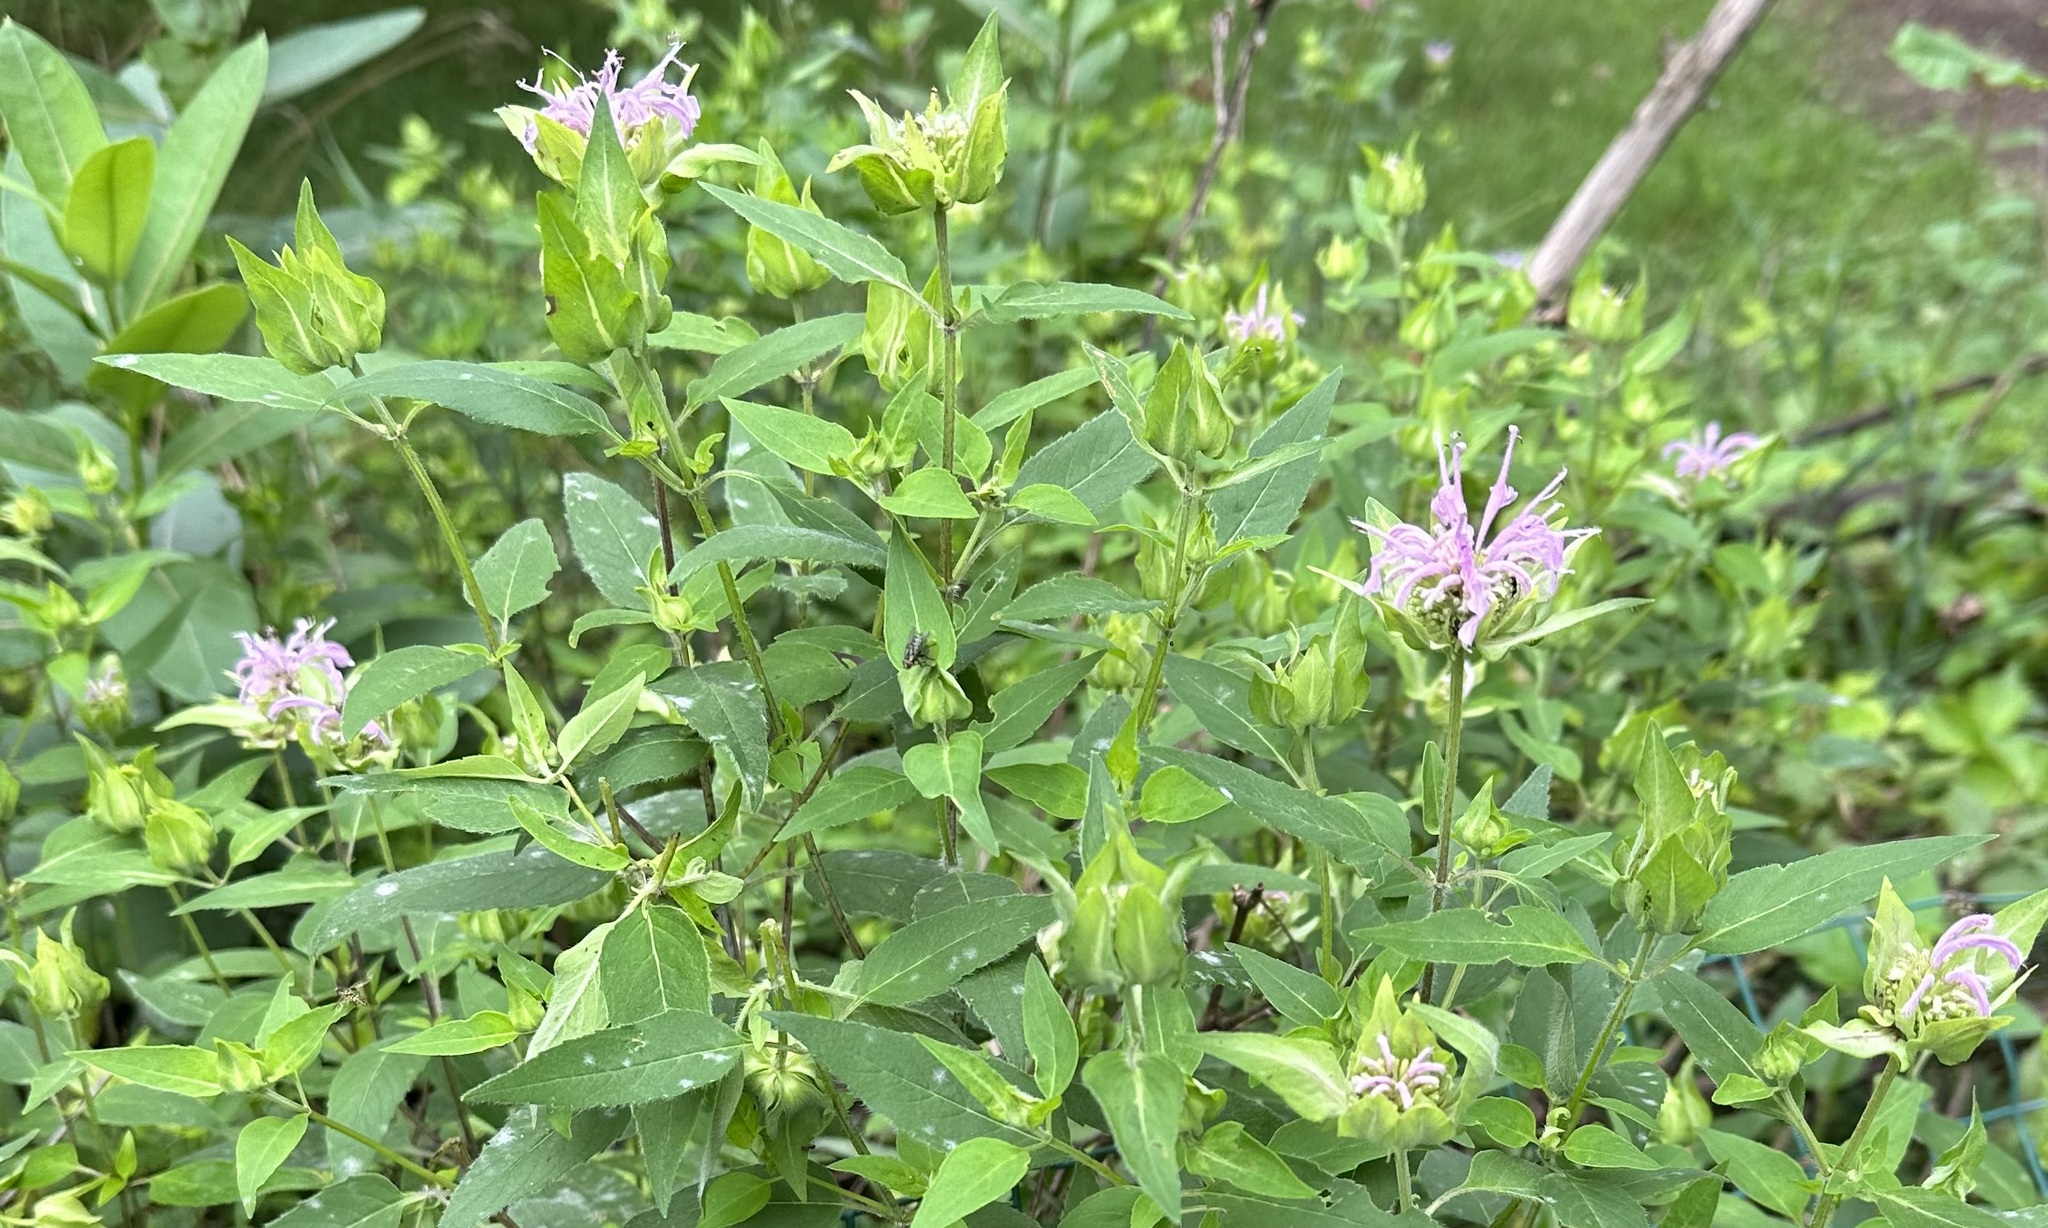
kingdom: Plantae
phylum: Tracheophyta
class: Magnoliopsida
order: Lamiales
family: Lamiaceae
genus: Monarda
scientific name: Monarda fistulosa
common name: Purple beebalm
